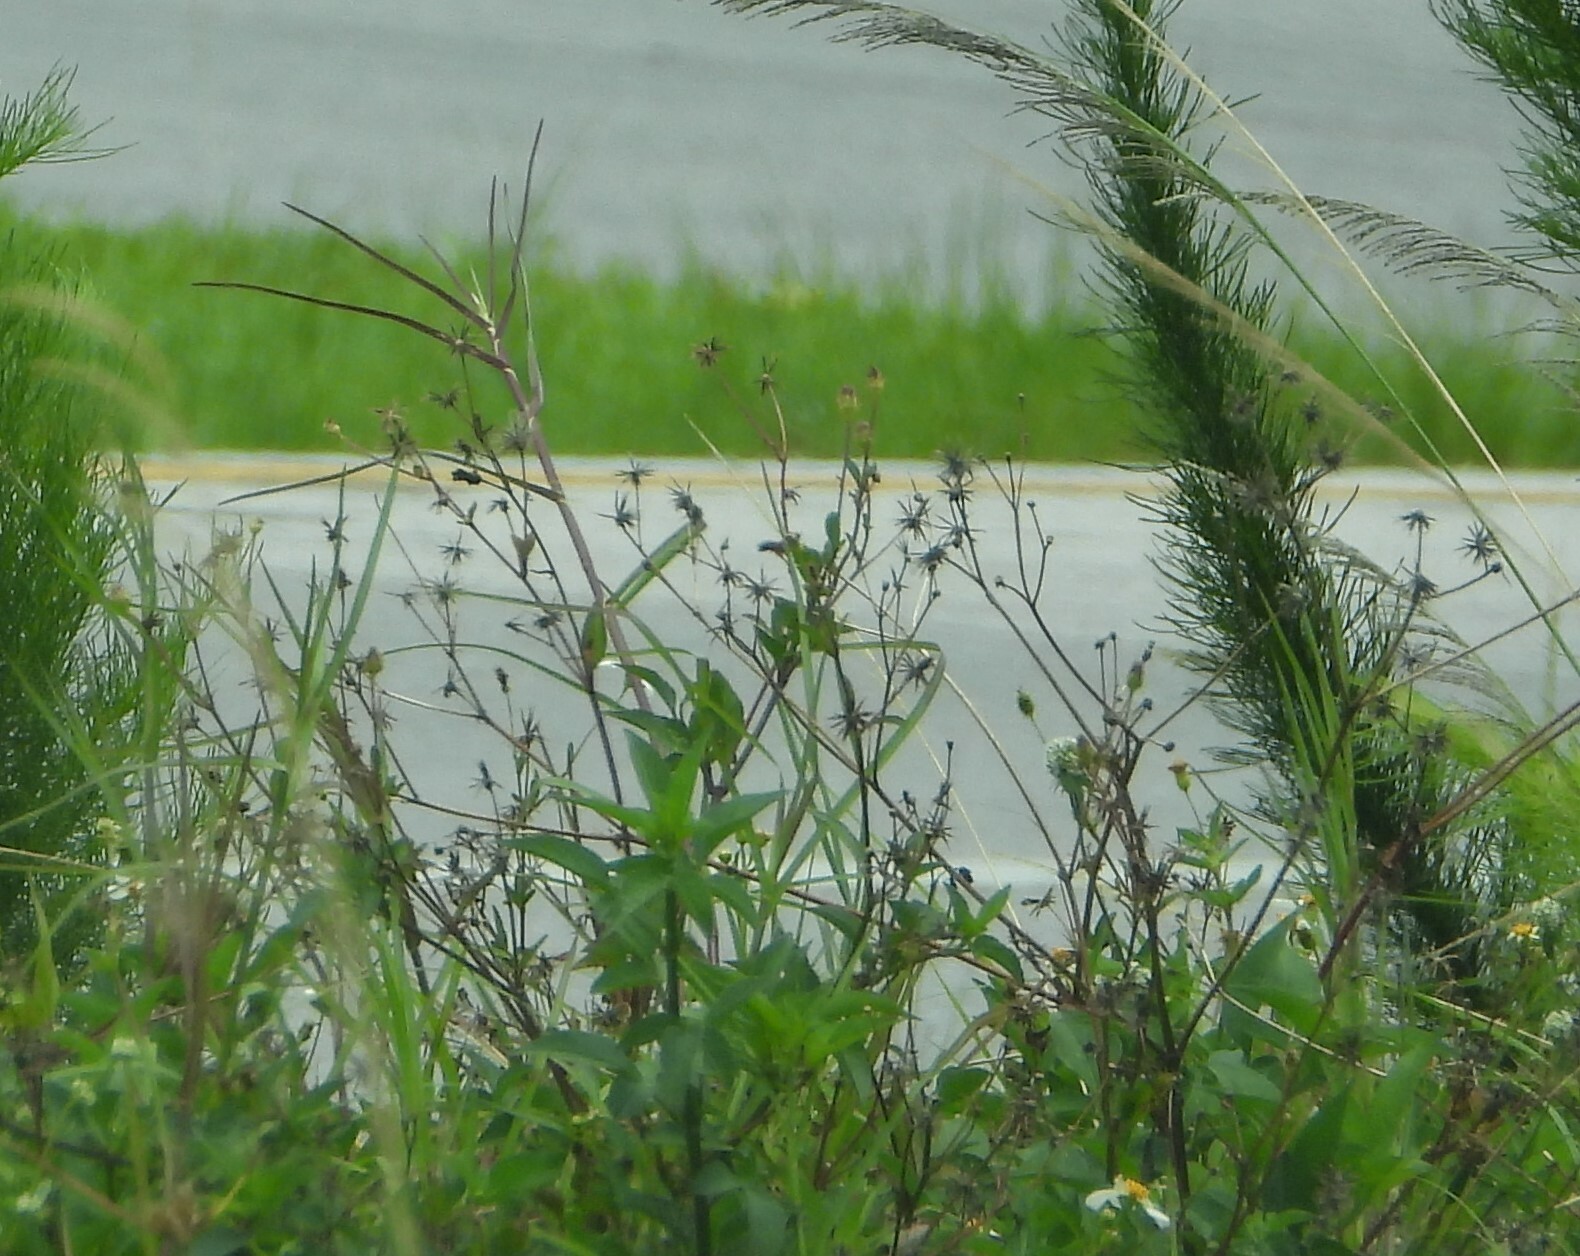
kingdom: Plantae
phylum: Tracheophyta
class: Magnoliopsida
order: Asterales
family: Asteraceae
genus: Bidens
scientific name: Bidens alba
